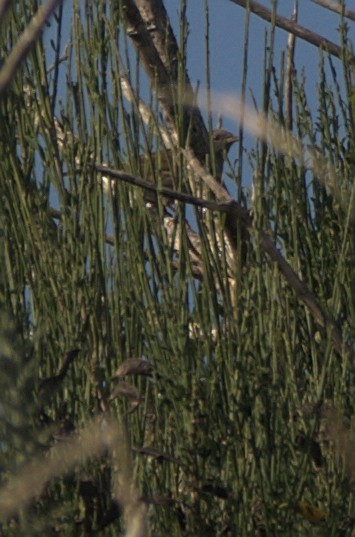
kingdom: Animalia
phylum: Chordata
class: Aves
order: Passeriformes
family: Prunellidae
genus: Prunella
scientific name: Prunella modularis
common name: Dunnock
